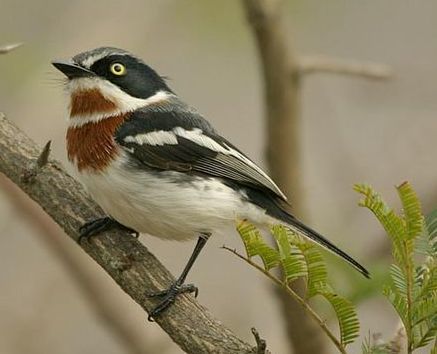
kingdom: Animalia
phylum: Chordata
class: Aves
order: Passeriformes
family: Platysteiridae
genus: Batis
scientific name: Batis molitor
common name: Chinspot batis
